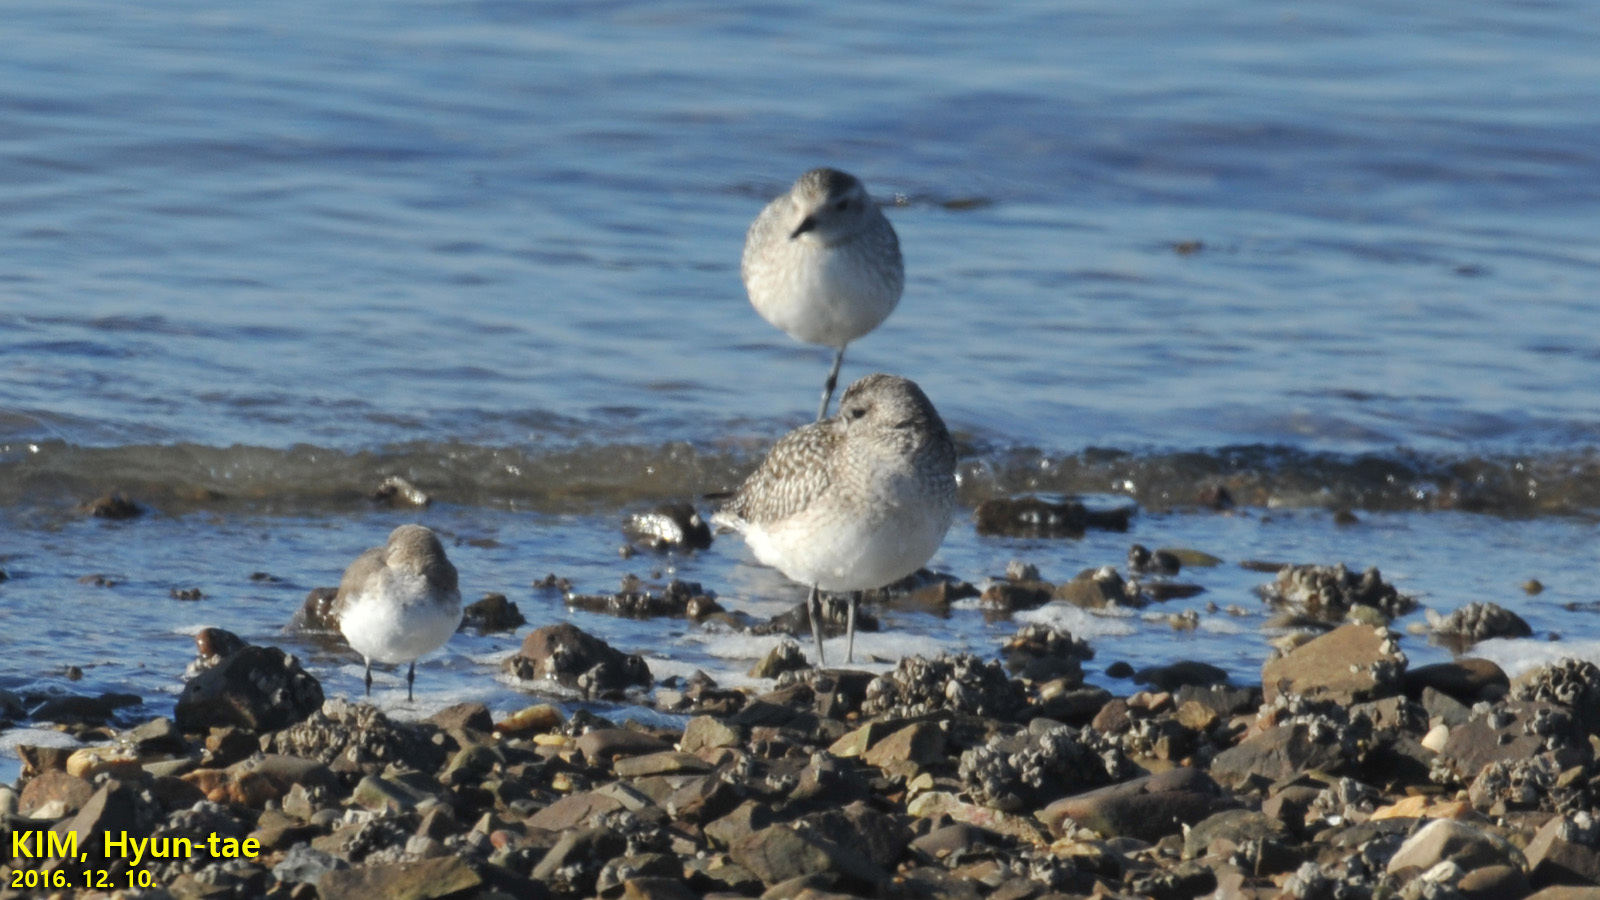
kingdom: Animalia
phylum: Chordata
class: Aves
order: Charadriiformes
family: Charadriidae
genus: Pluvialis
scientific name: Pluvialis squatarola
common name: Grey plover
